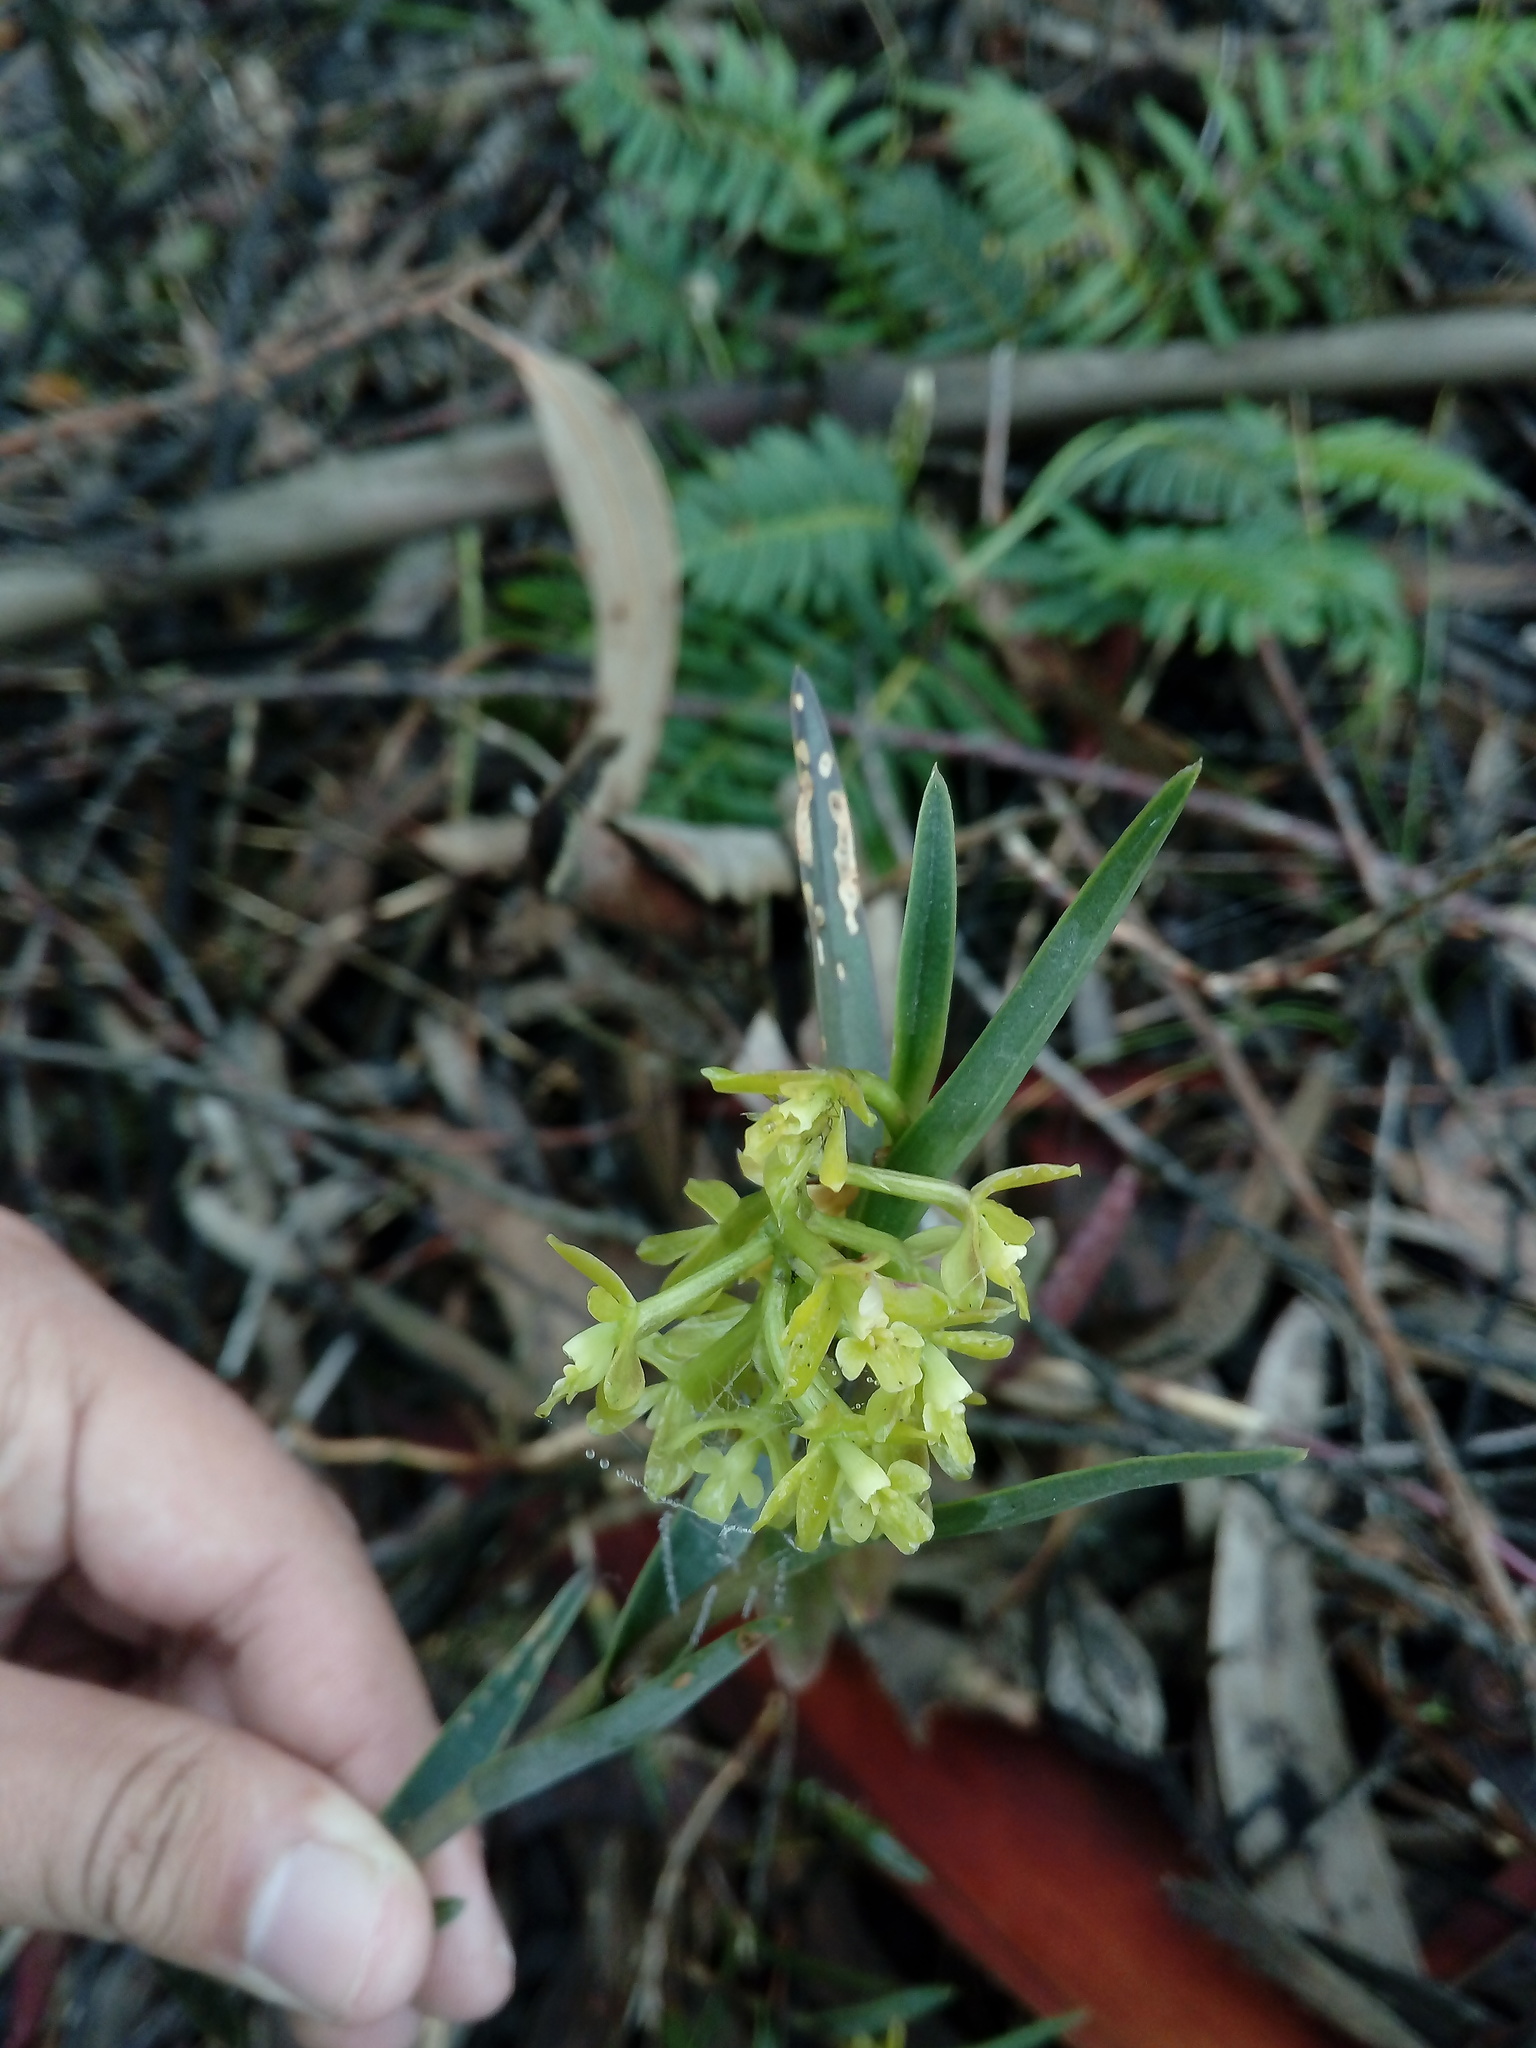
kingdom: Plantae
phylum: Tracheophyta
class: Liliopsida
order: Asparagales
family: Orchidaceae
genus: Epidendrum
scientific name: Epidendrum tenuicaule
